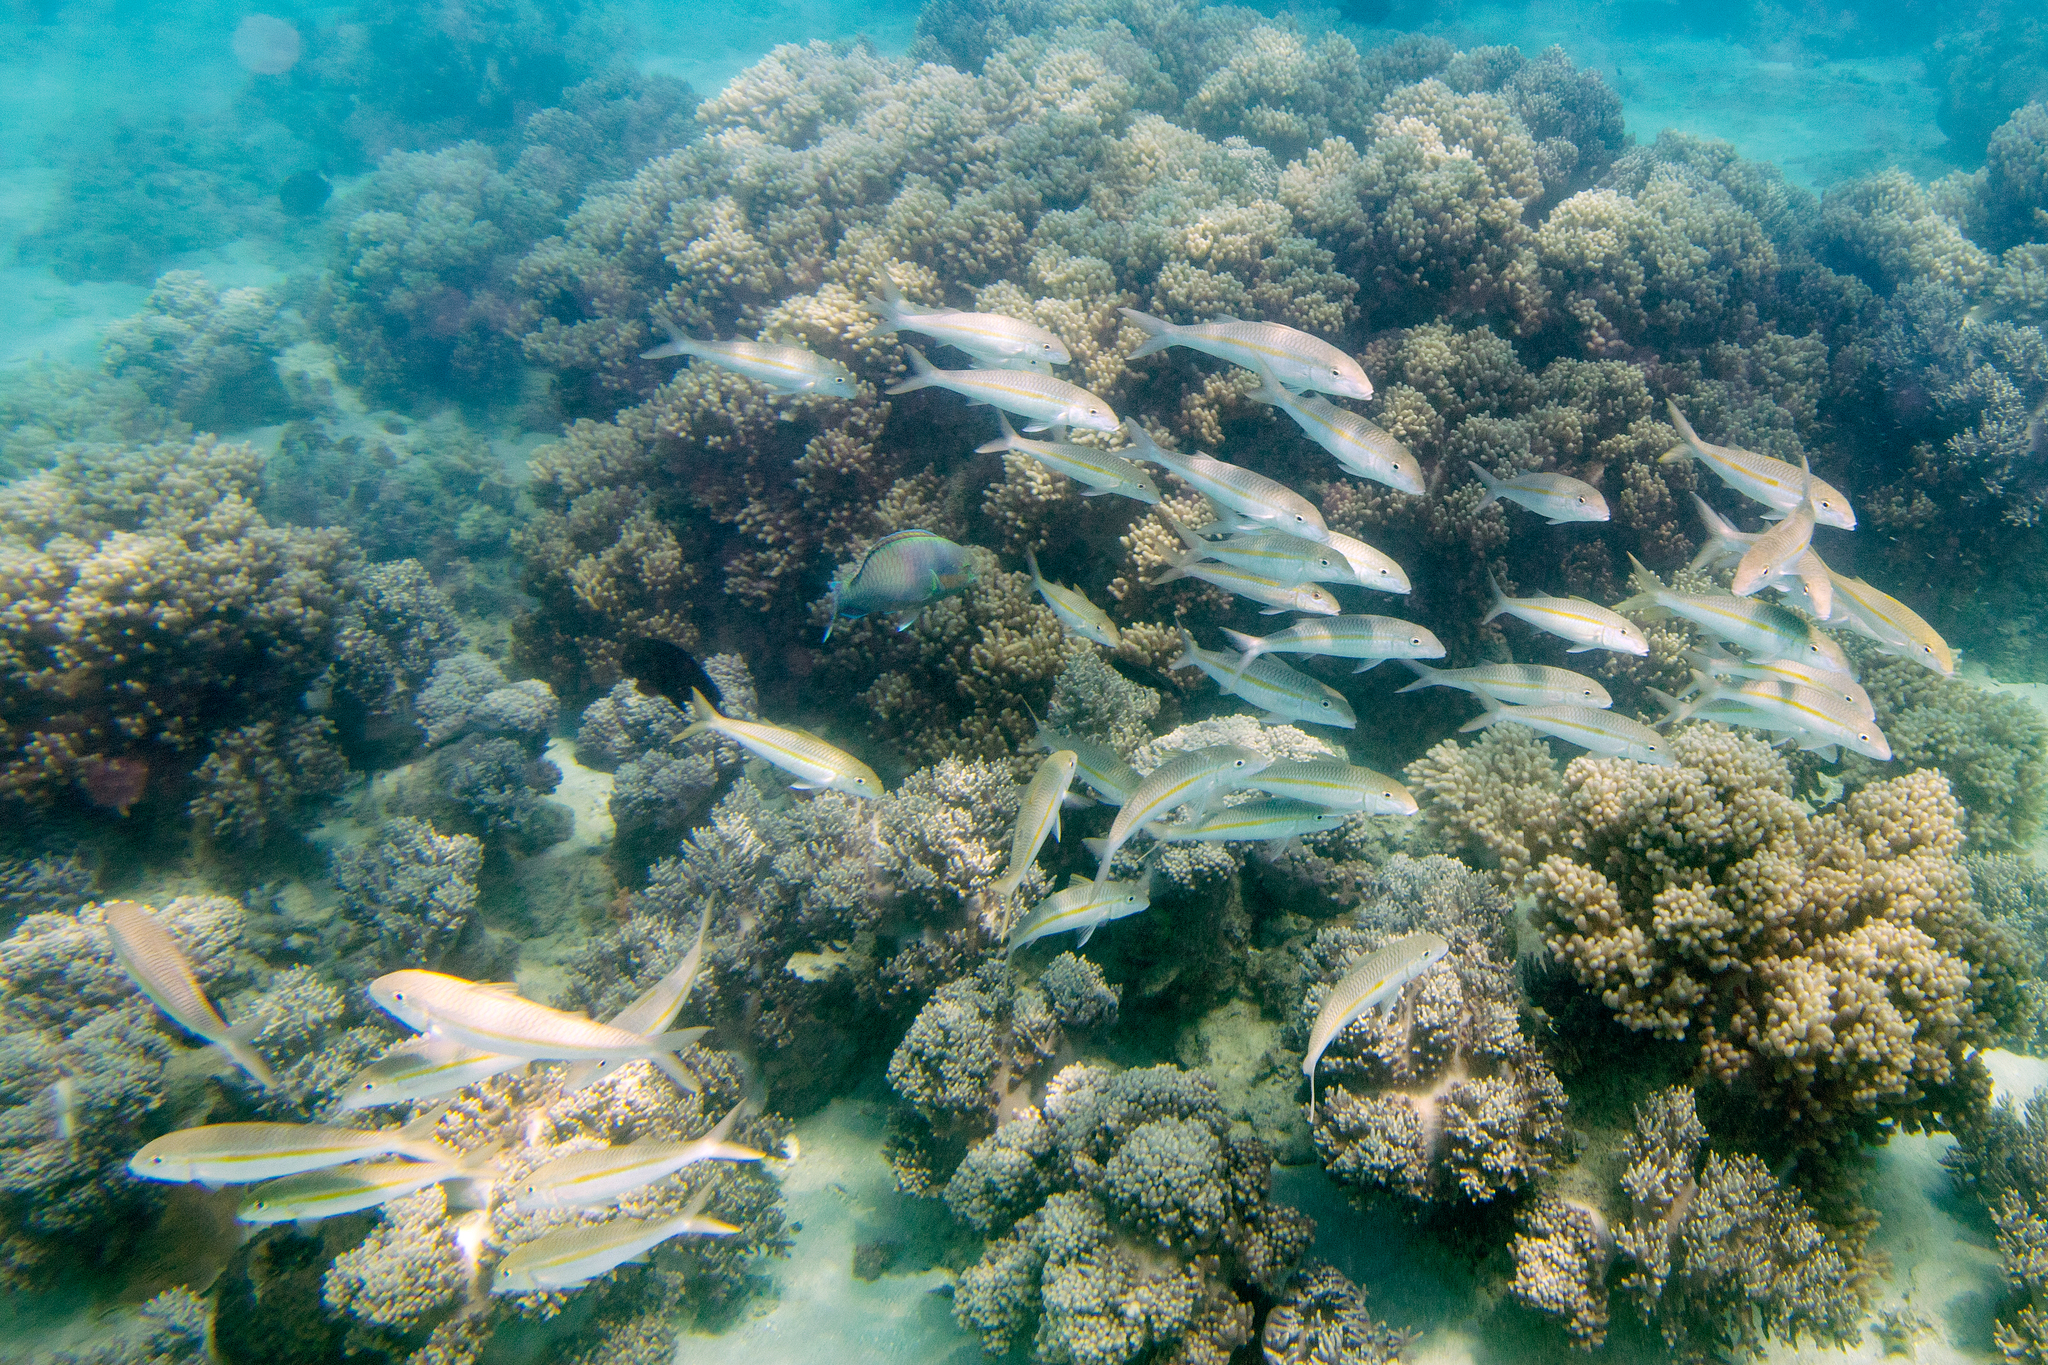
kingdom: Animalia
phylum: Chordata
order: Perciformes
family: Mullidae
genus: Mulloidichthys
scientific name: Mulloidichthys flavolineatus
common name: Yellowstripe goatfish
